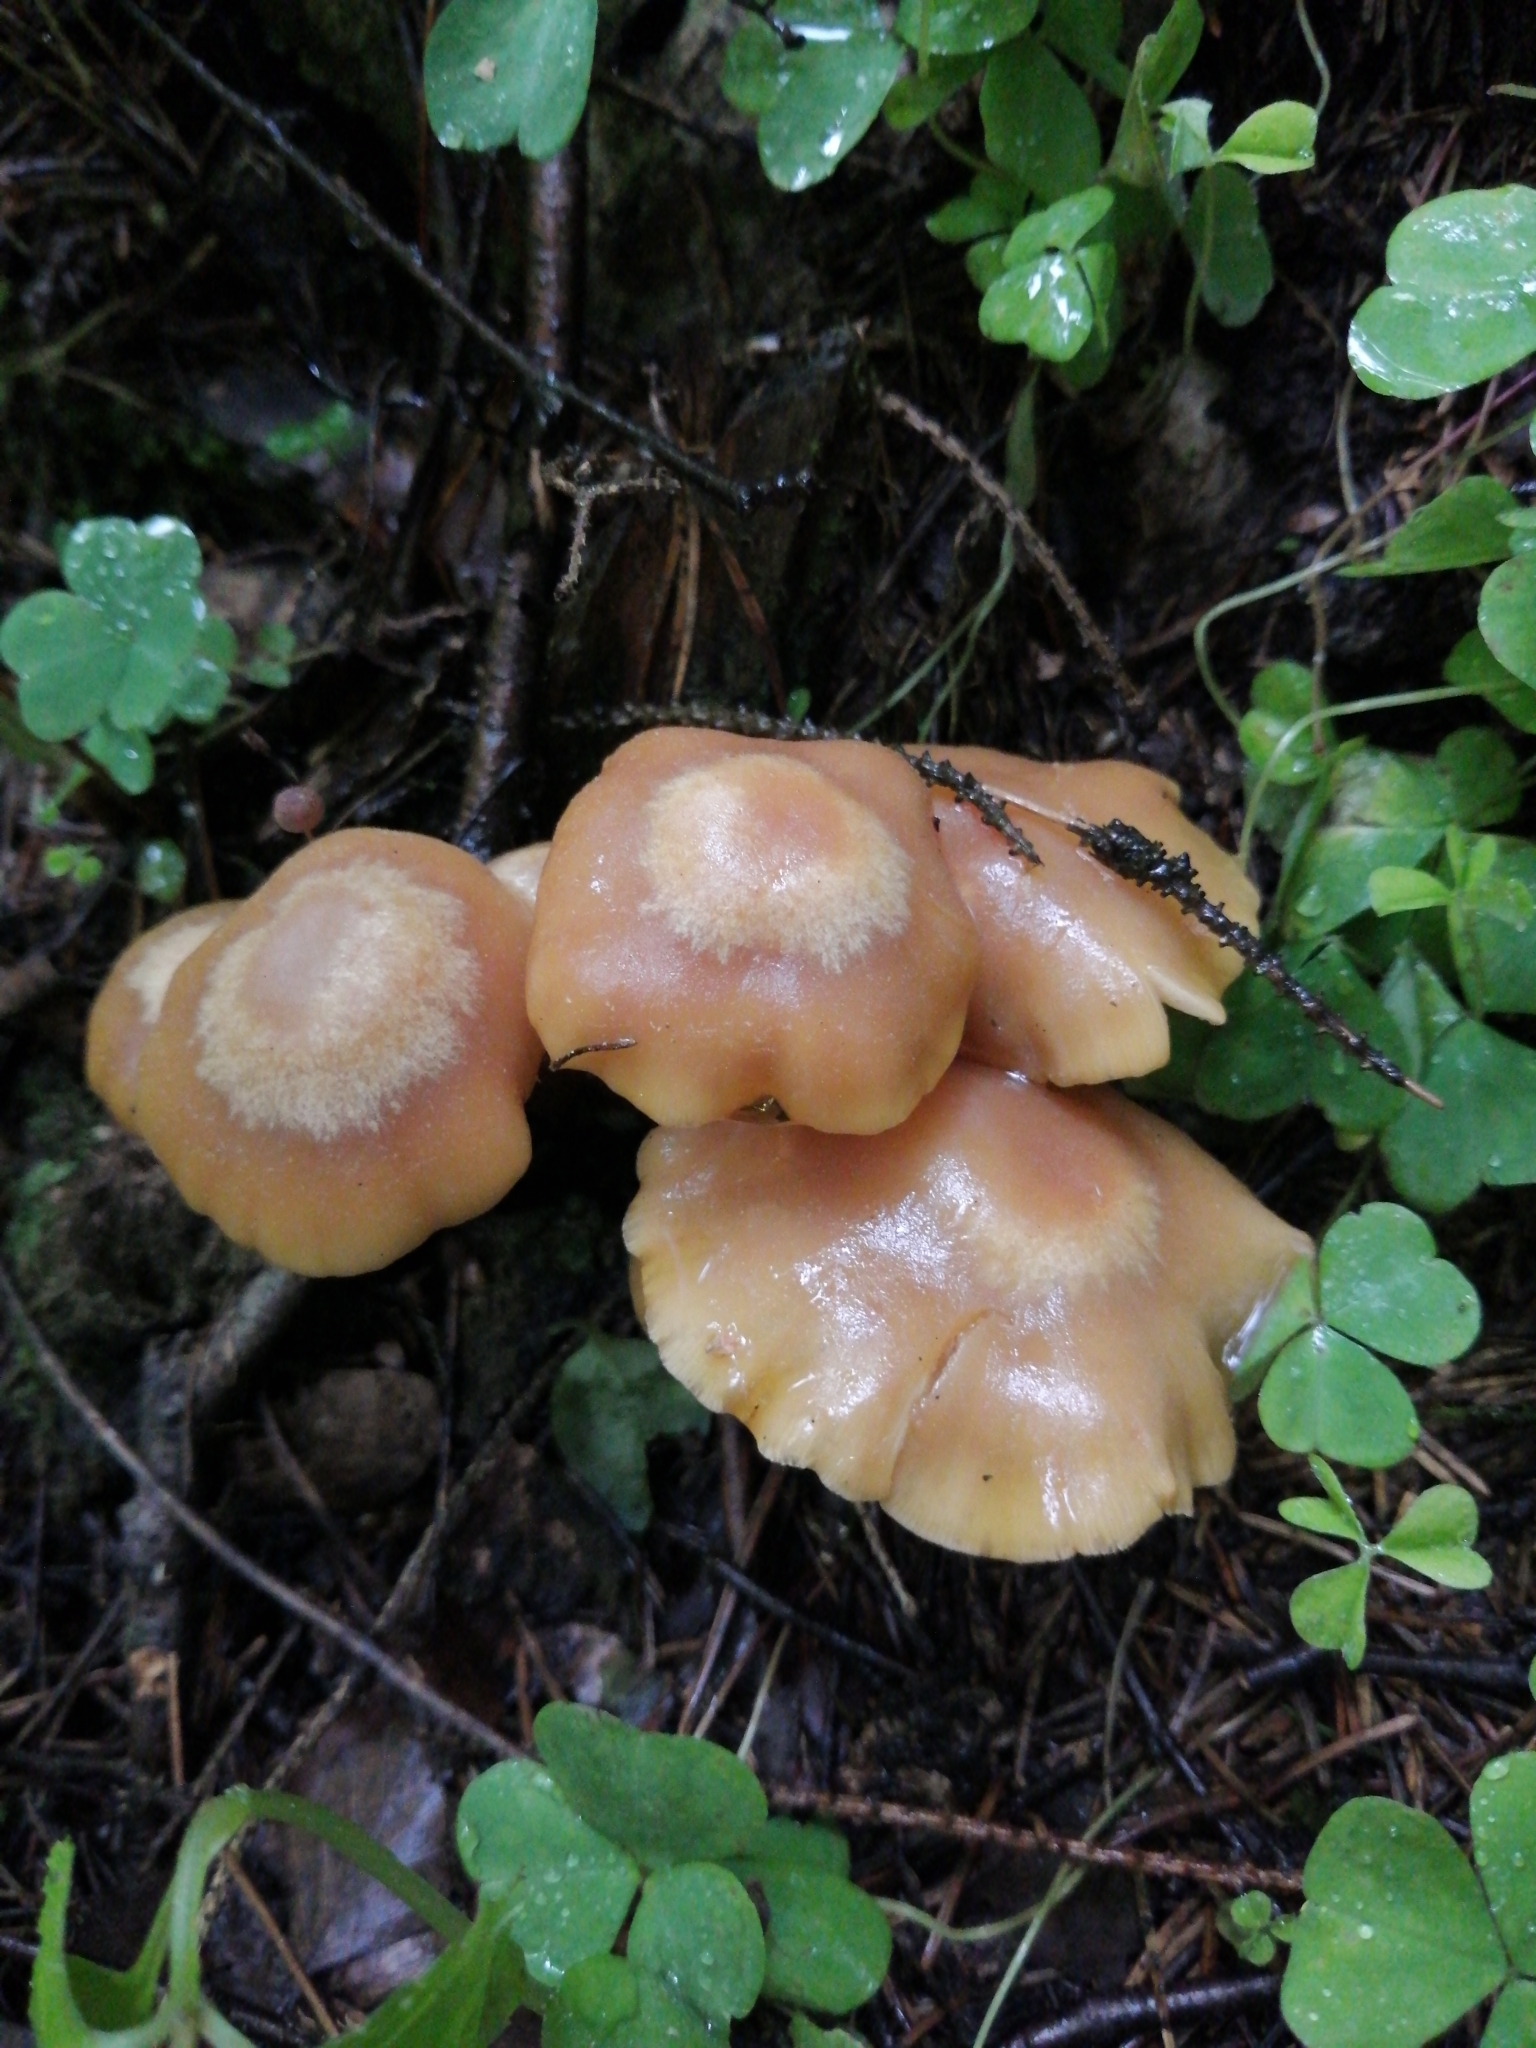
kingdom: Fungi
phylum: Basidiomycota
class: Agaricomycetes
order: Agaricales
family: Strophariaceae
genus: Kuehneromyces
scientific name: Kuehneromyces mutabilis
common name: Sheathed woodtuft
